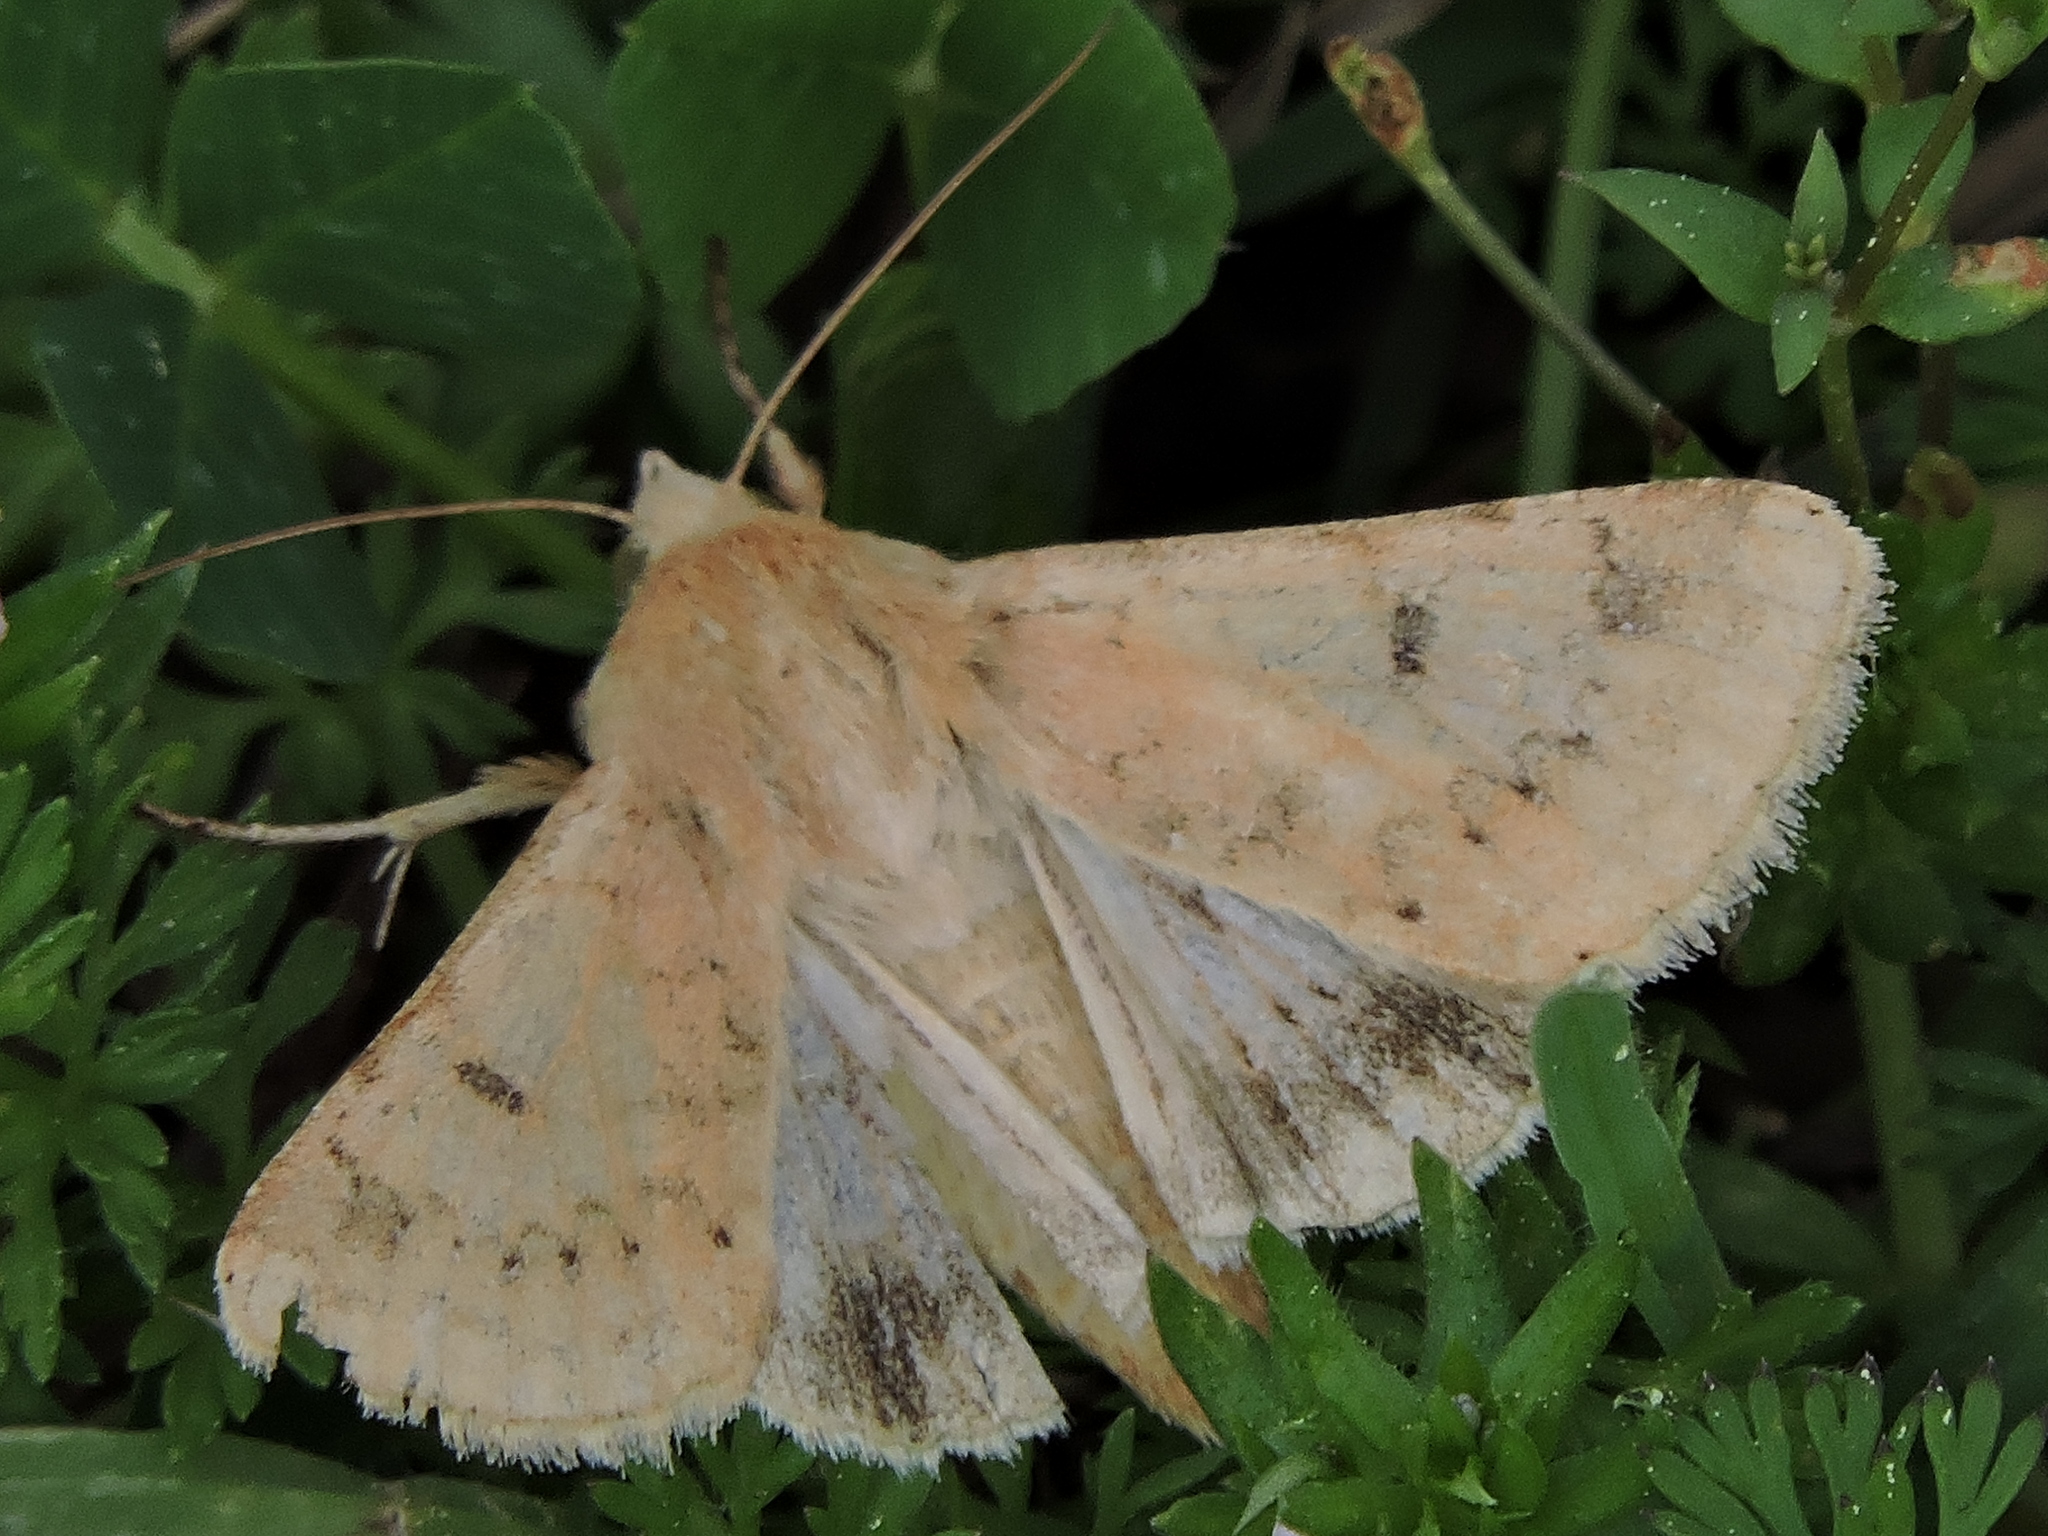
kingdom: Animalia
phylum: Arthropoda
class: Insecta
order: Lepidoptera
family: Noctuidae
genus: Helicoverpa
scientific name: Helicoverpa zea
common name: Bollworm
